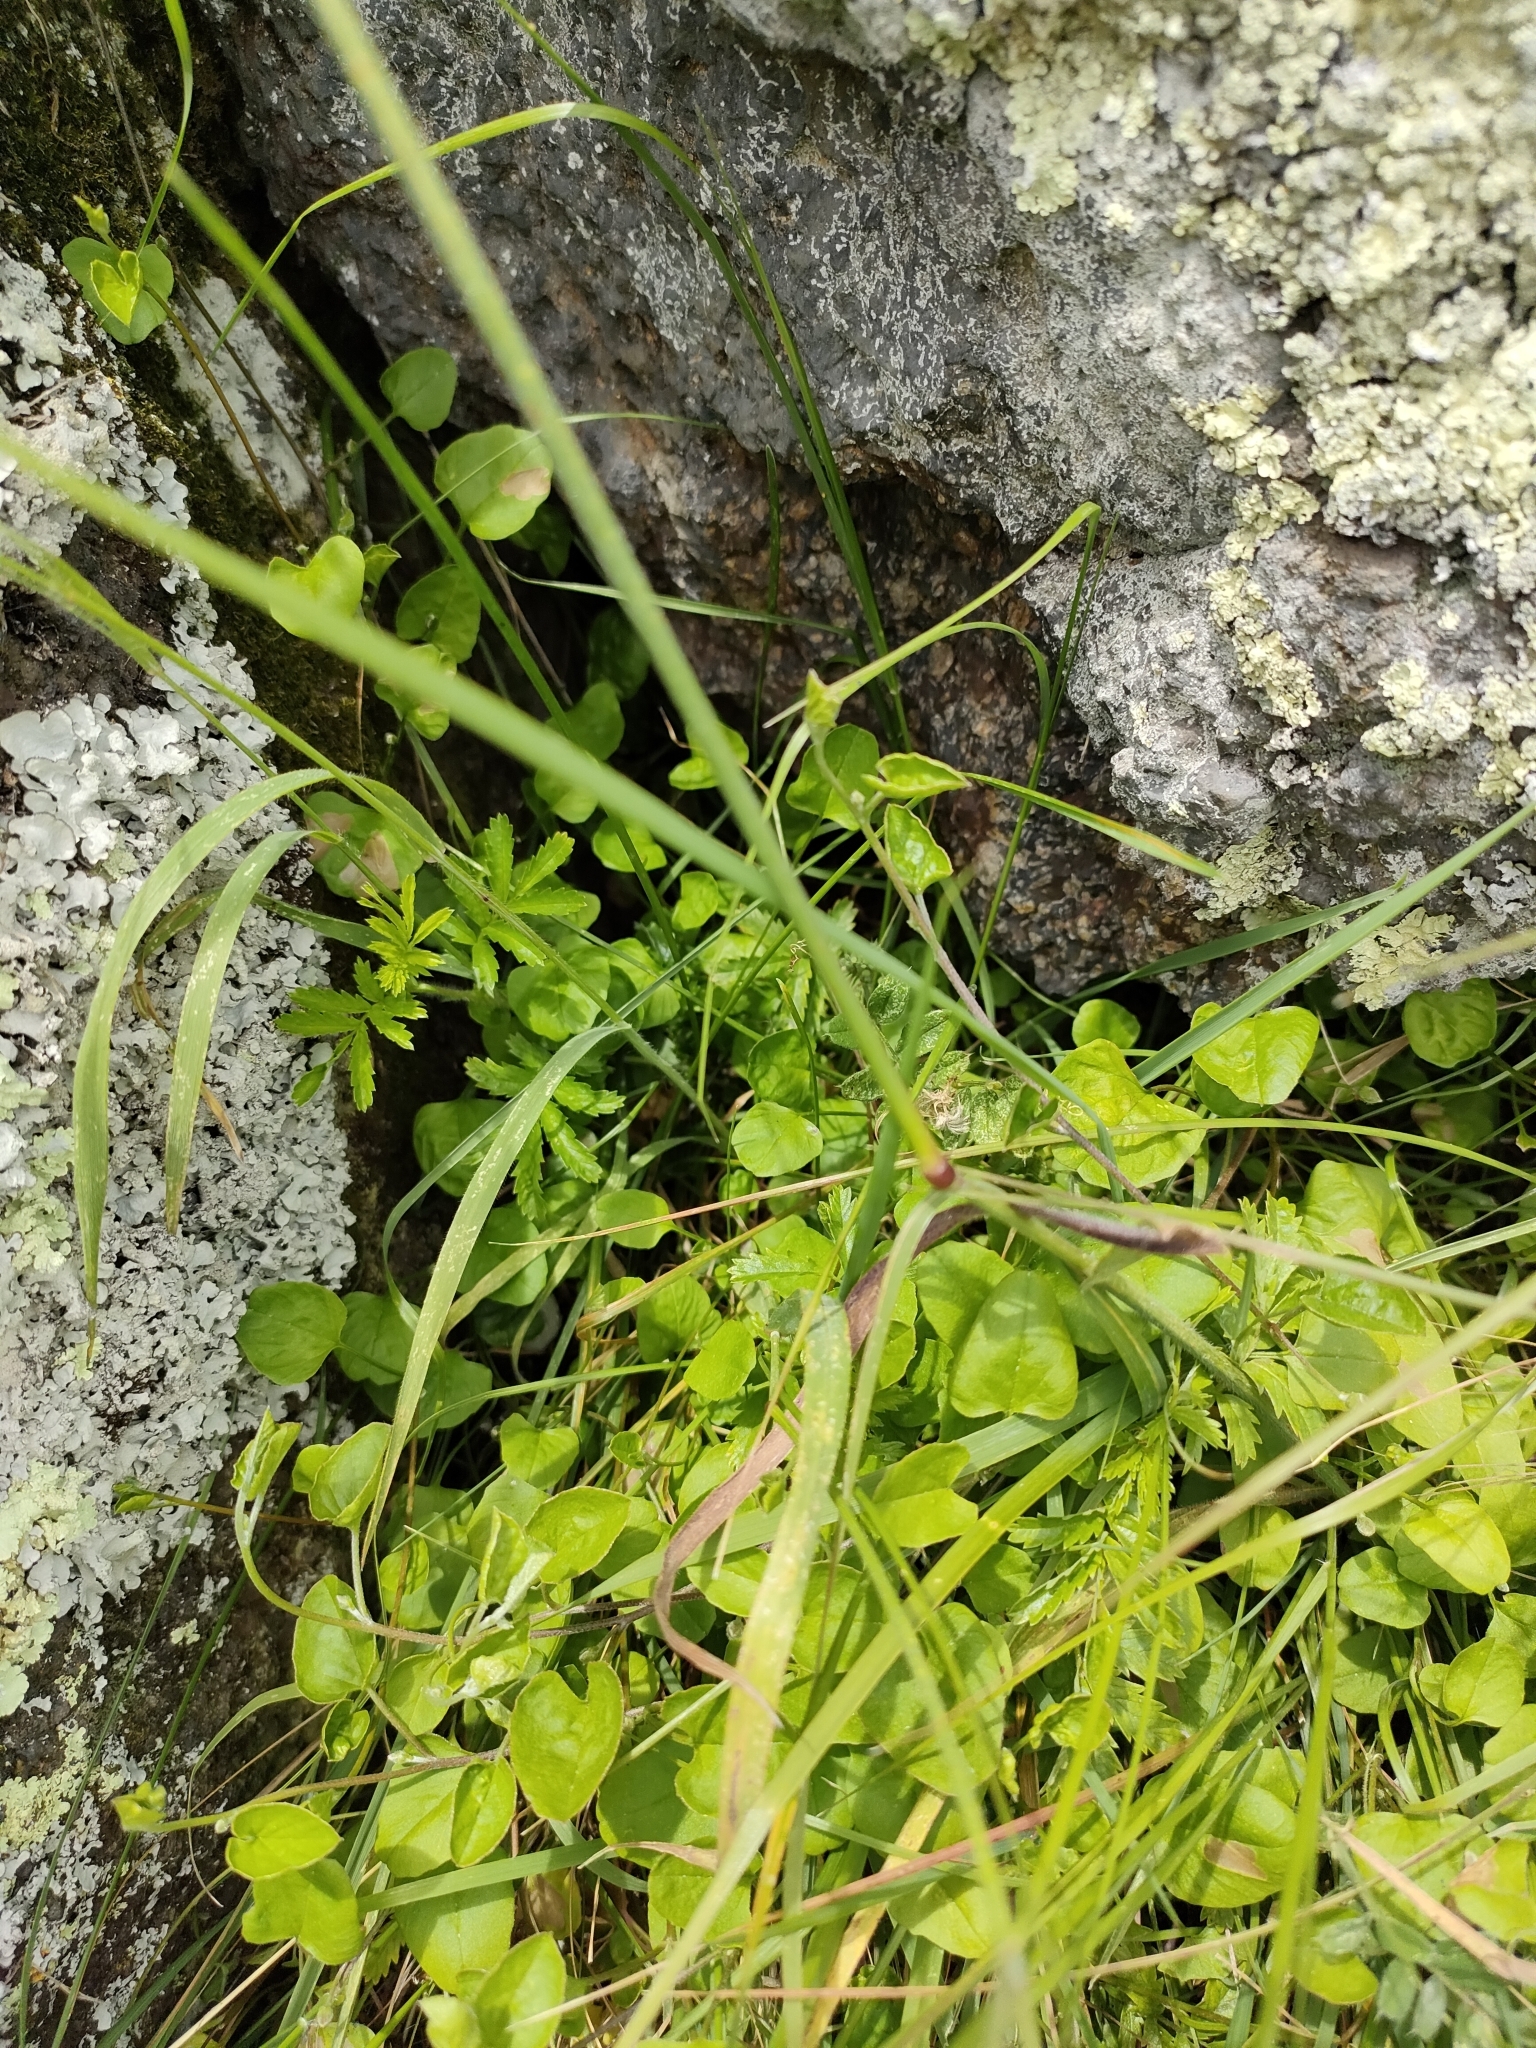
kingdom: Plantae
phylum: Tracheophyta
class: Magnoliopsida
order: Solanales
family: Convolvulaceae
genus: Convolvulus
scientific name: Convolvulus waitaha
